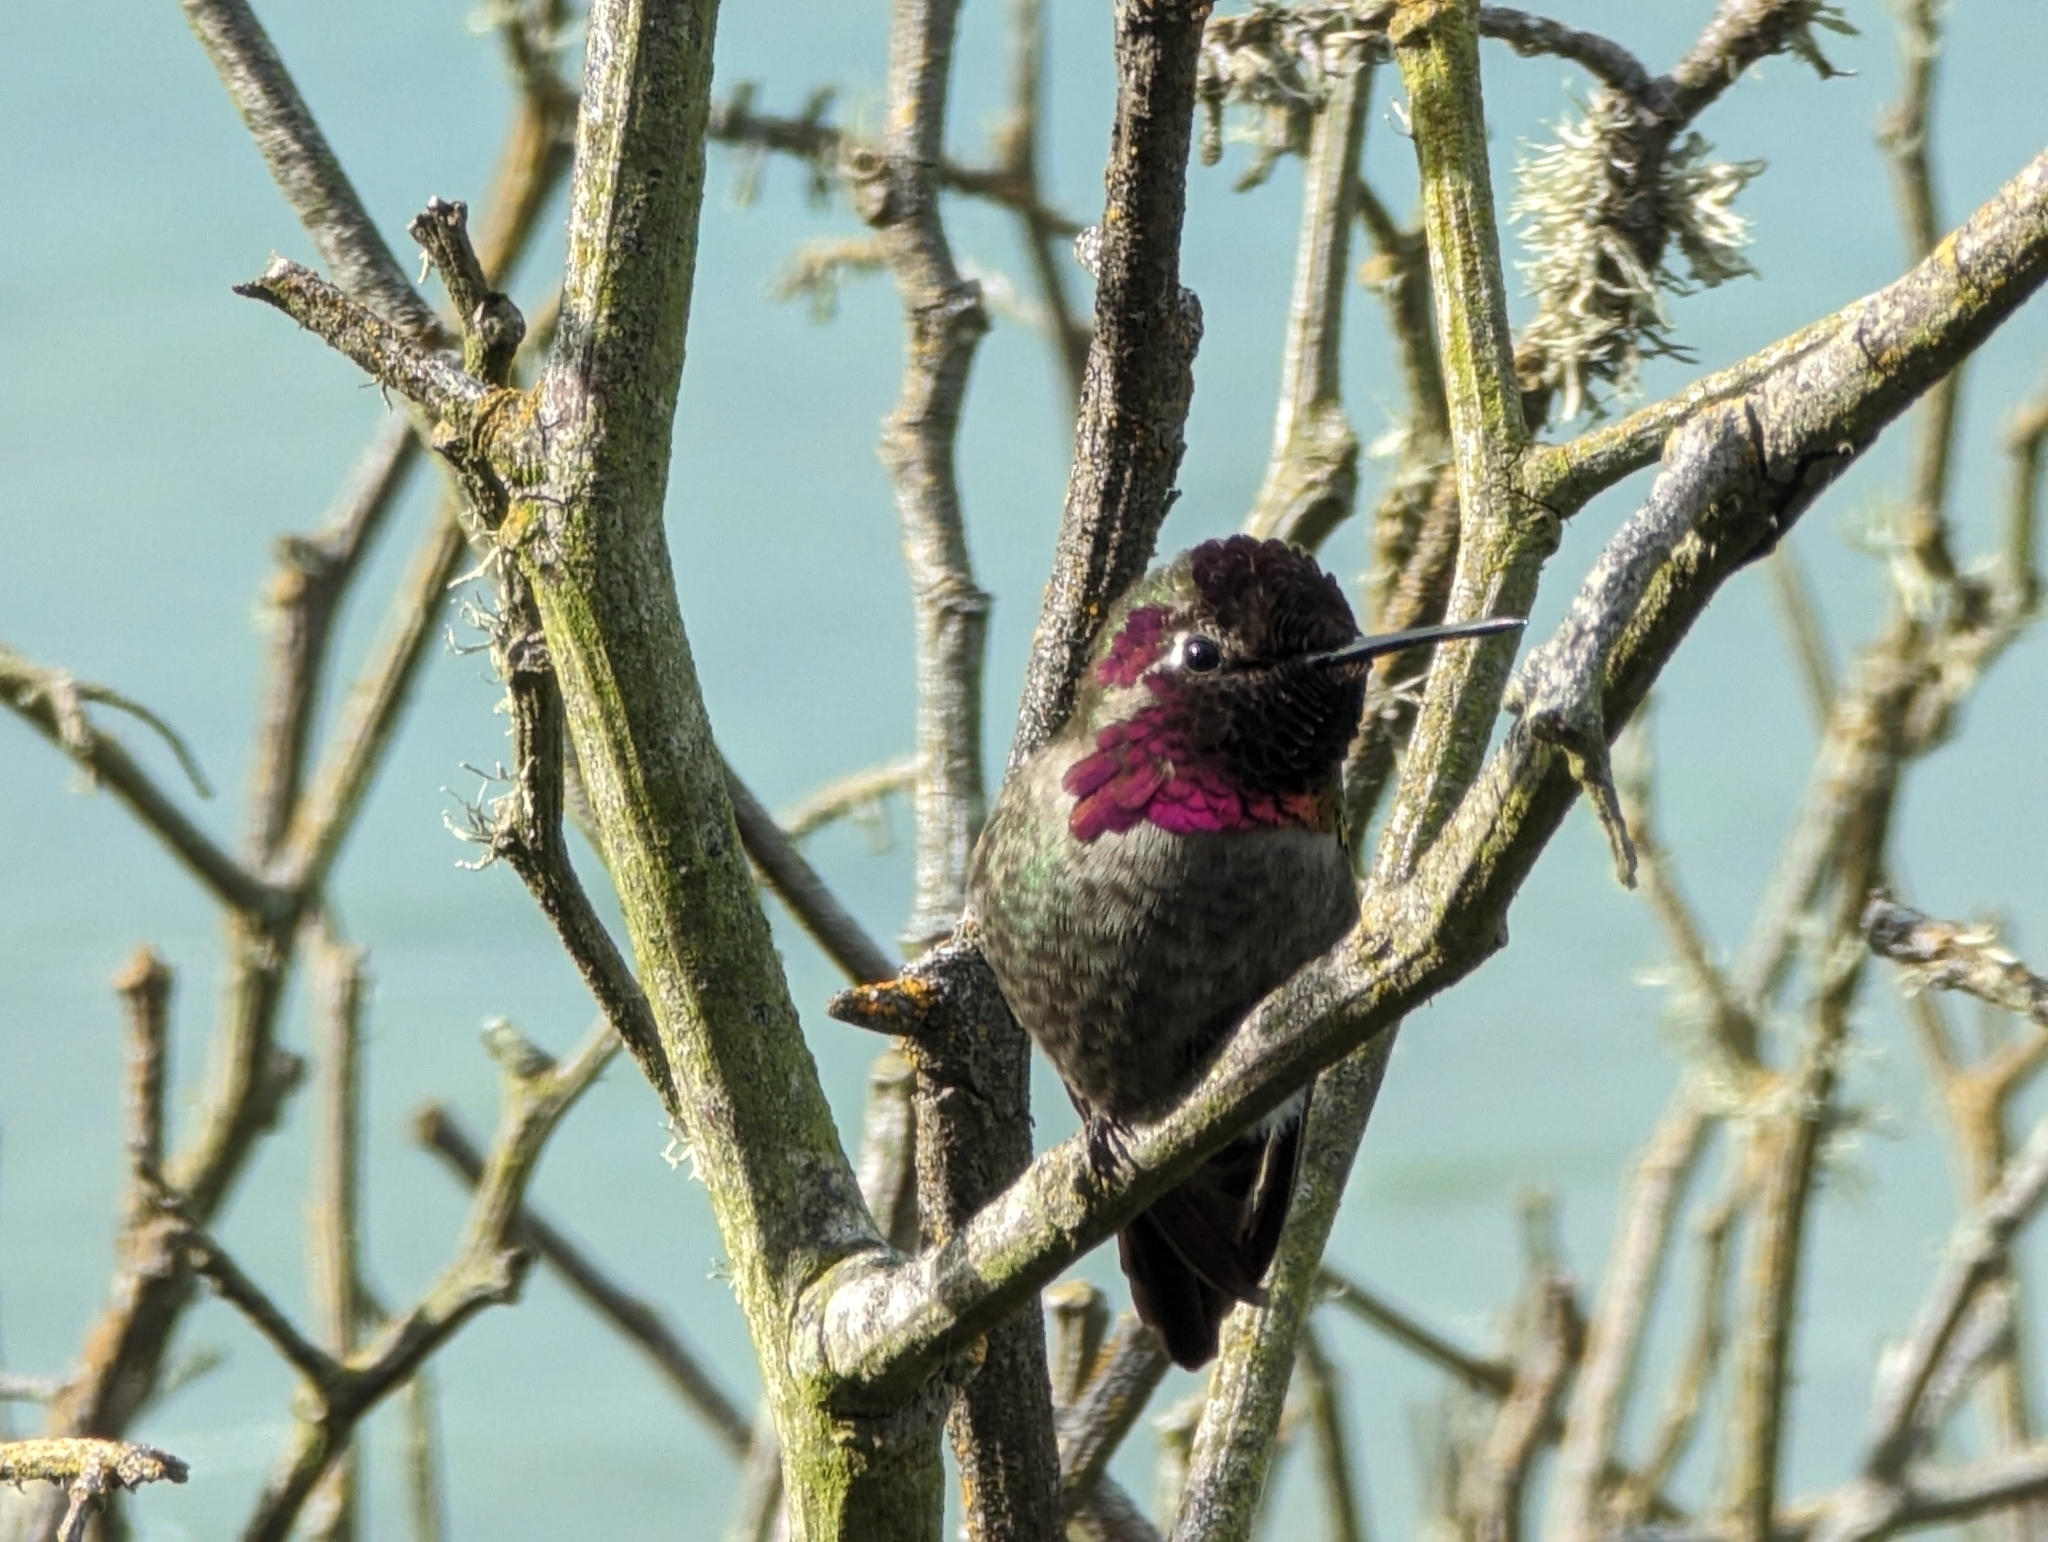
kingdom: Animalia
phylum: Chordata
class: Aves
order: Apodiformes
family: Trochilidae
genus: Calypte
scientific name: Calypte anna
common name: Anna's hummingbird
